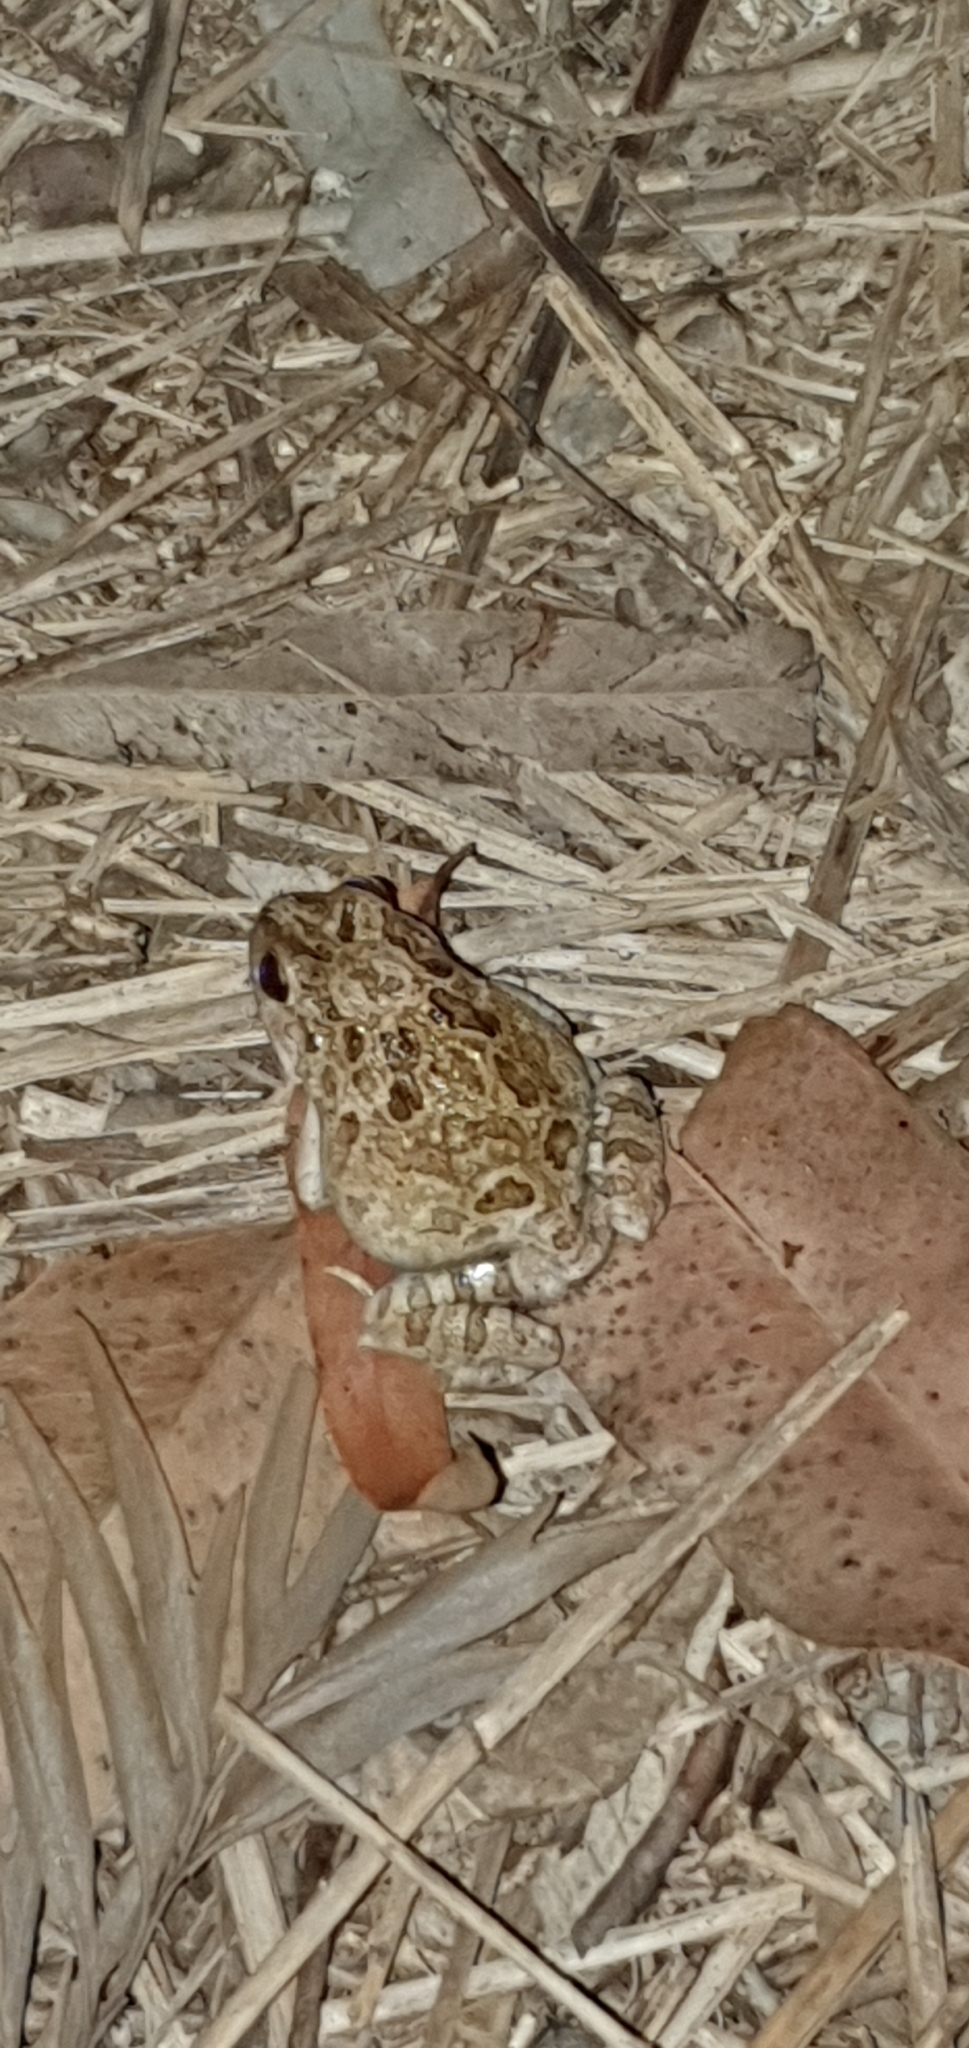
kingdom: Animalia
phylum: Chordata
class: Amphibia
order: Anura
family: Limnodynastidae
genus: Platyplectrum
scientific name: Platyplectrum ornatum
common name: Ornate burrowing frog
